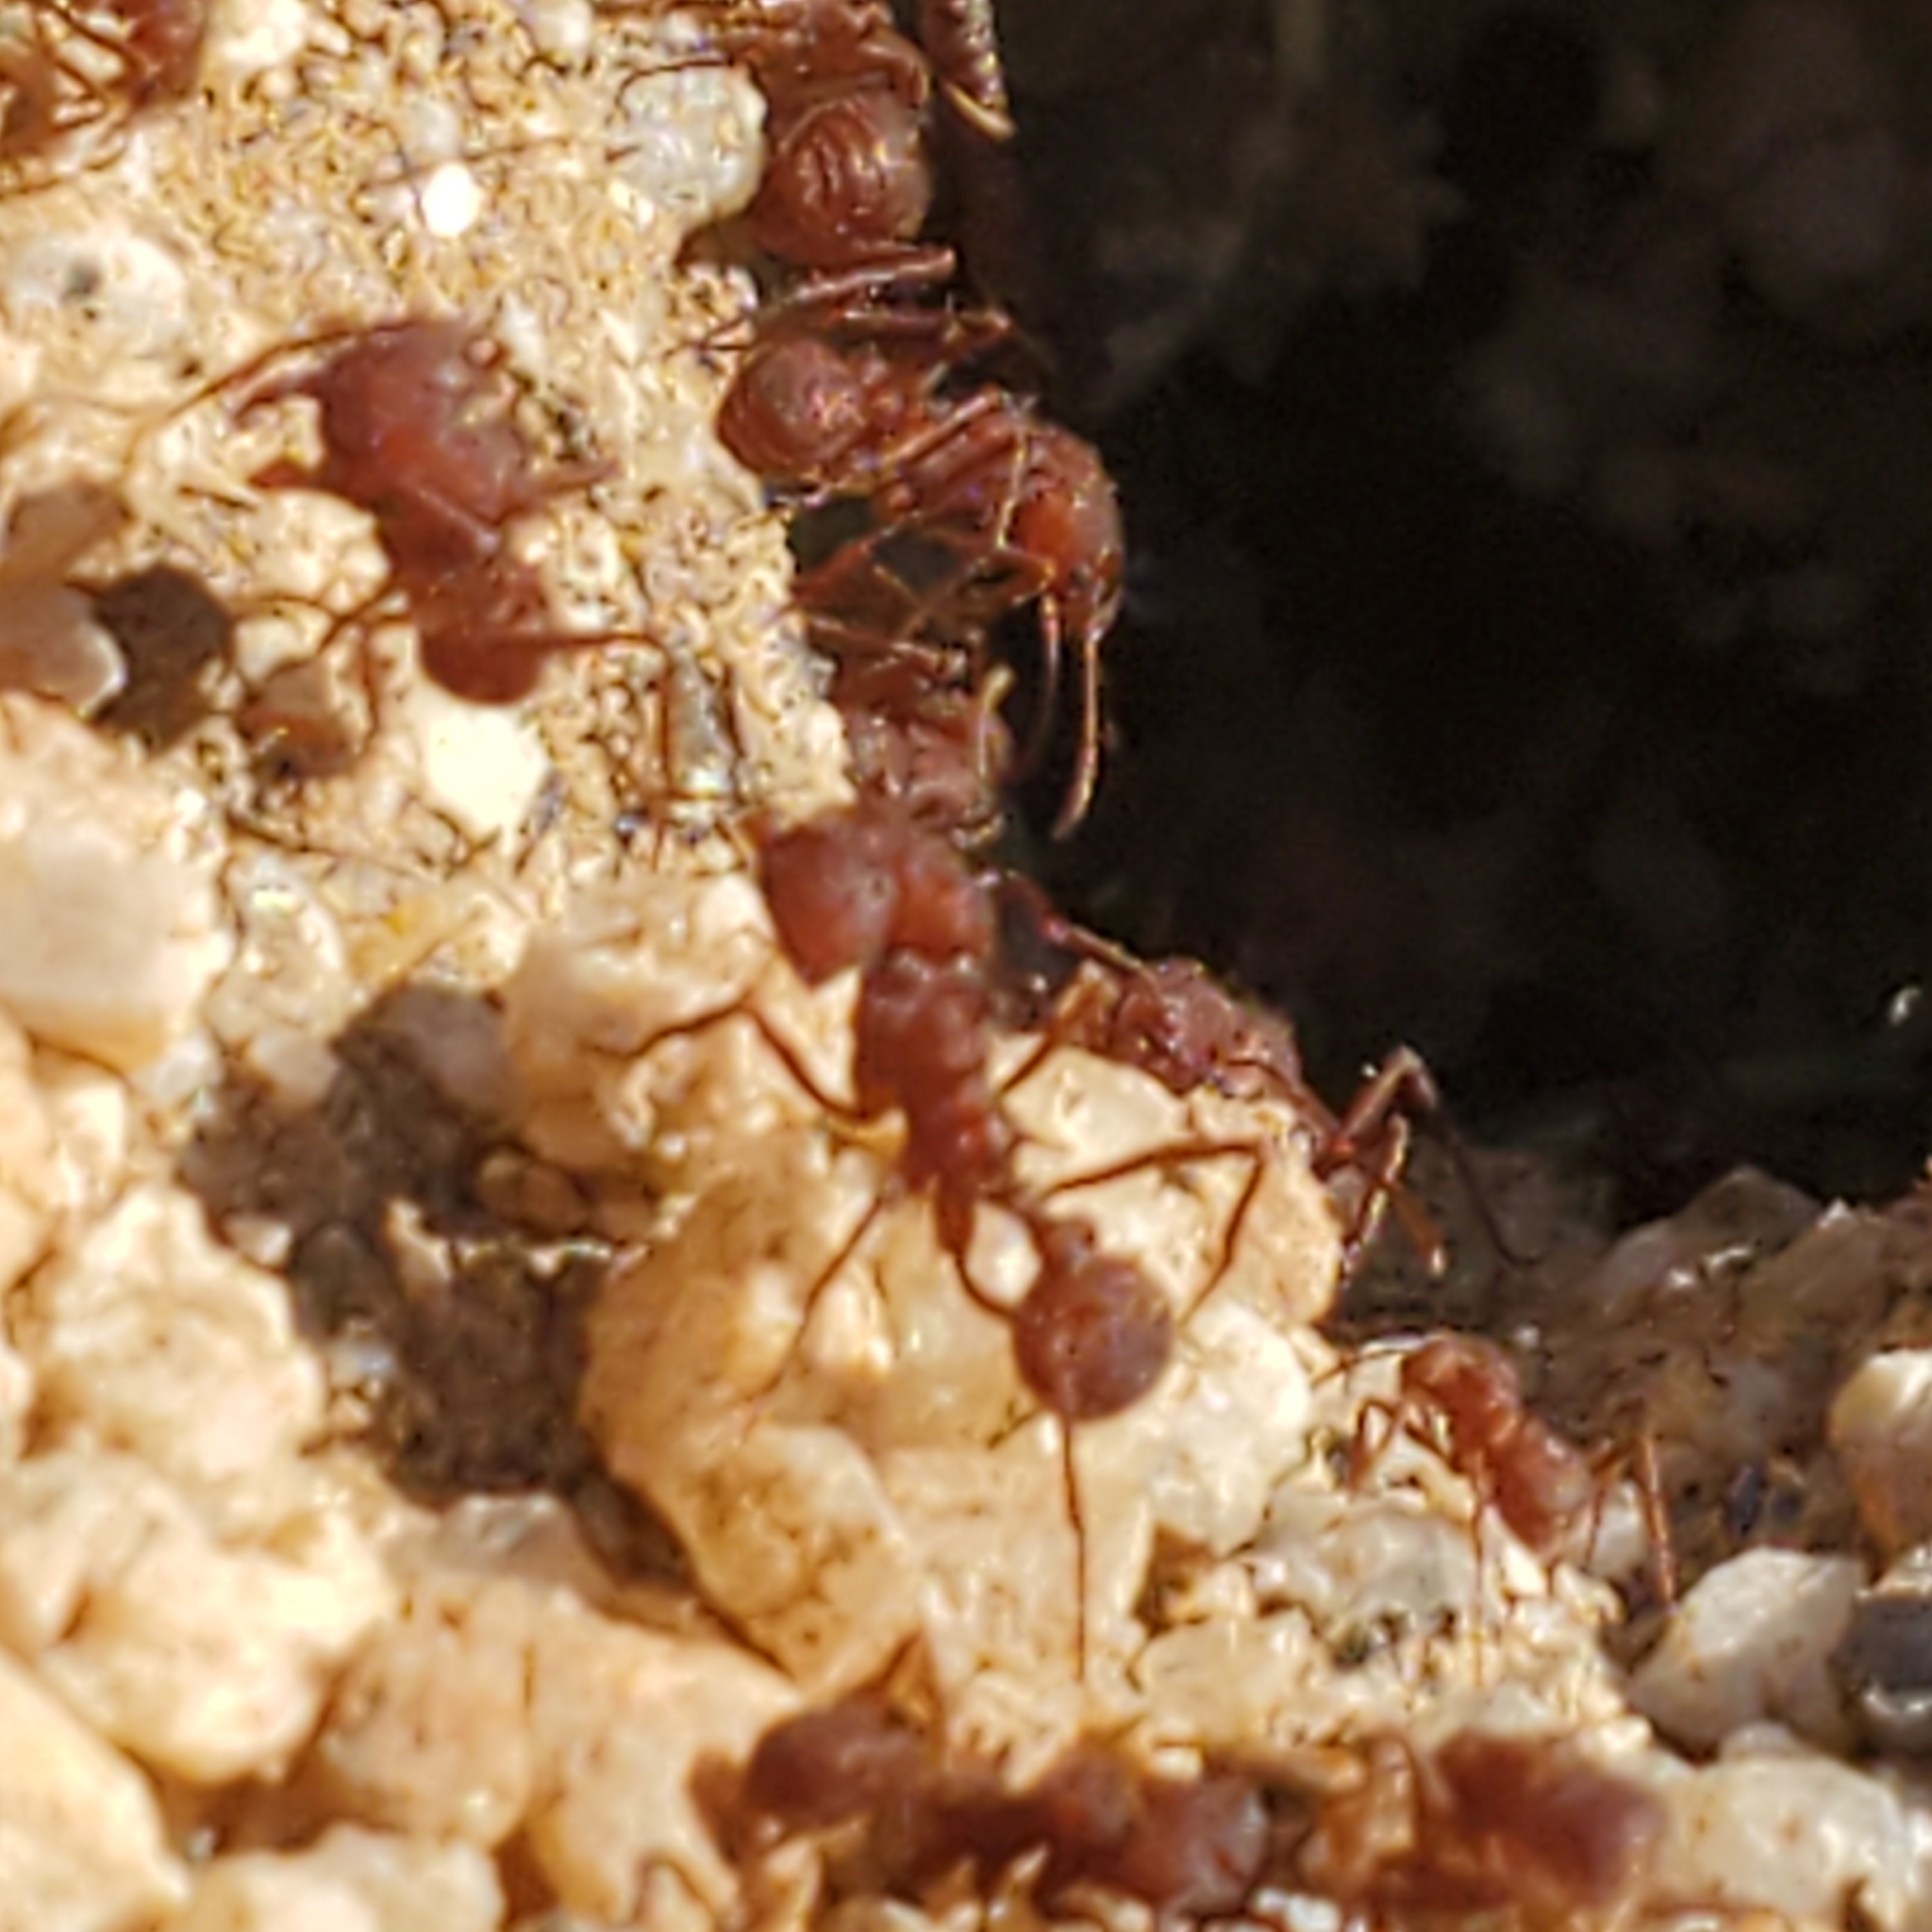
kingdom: Animalia
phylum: Arthropoda
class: Insecta
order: Hymenoptera
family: Formicidae
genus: Acromyrmex
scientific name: Acromyrmex versicolor
